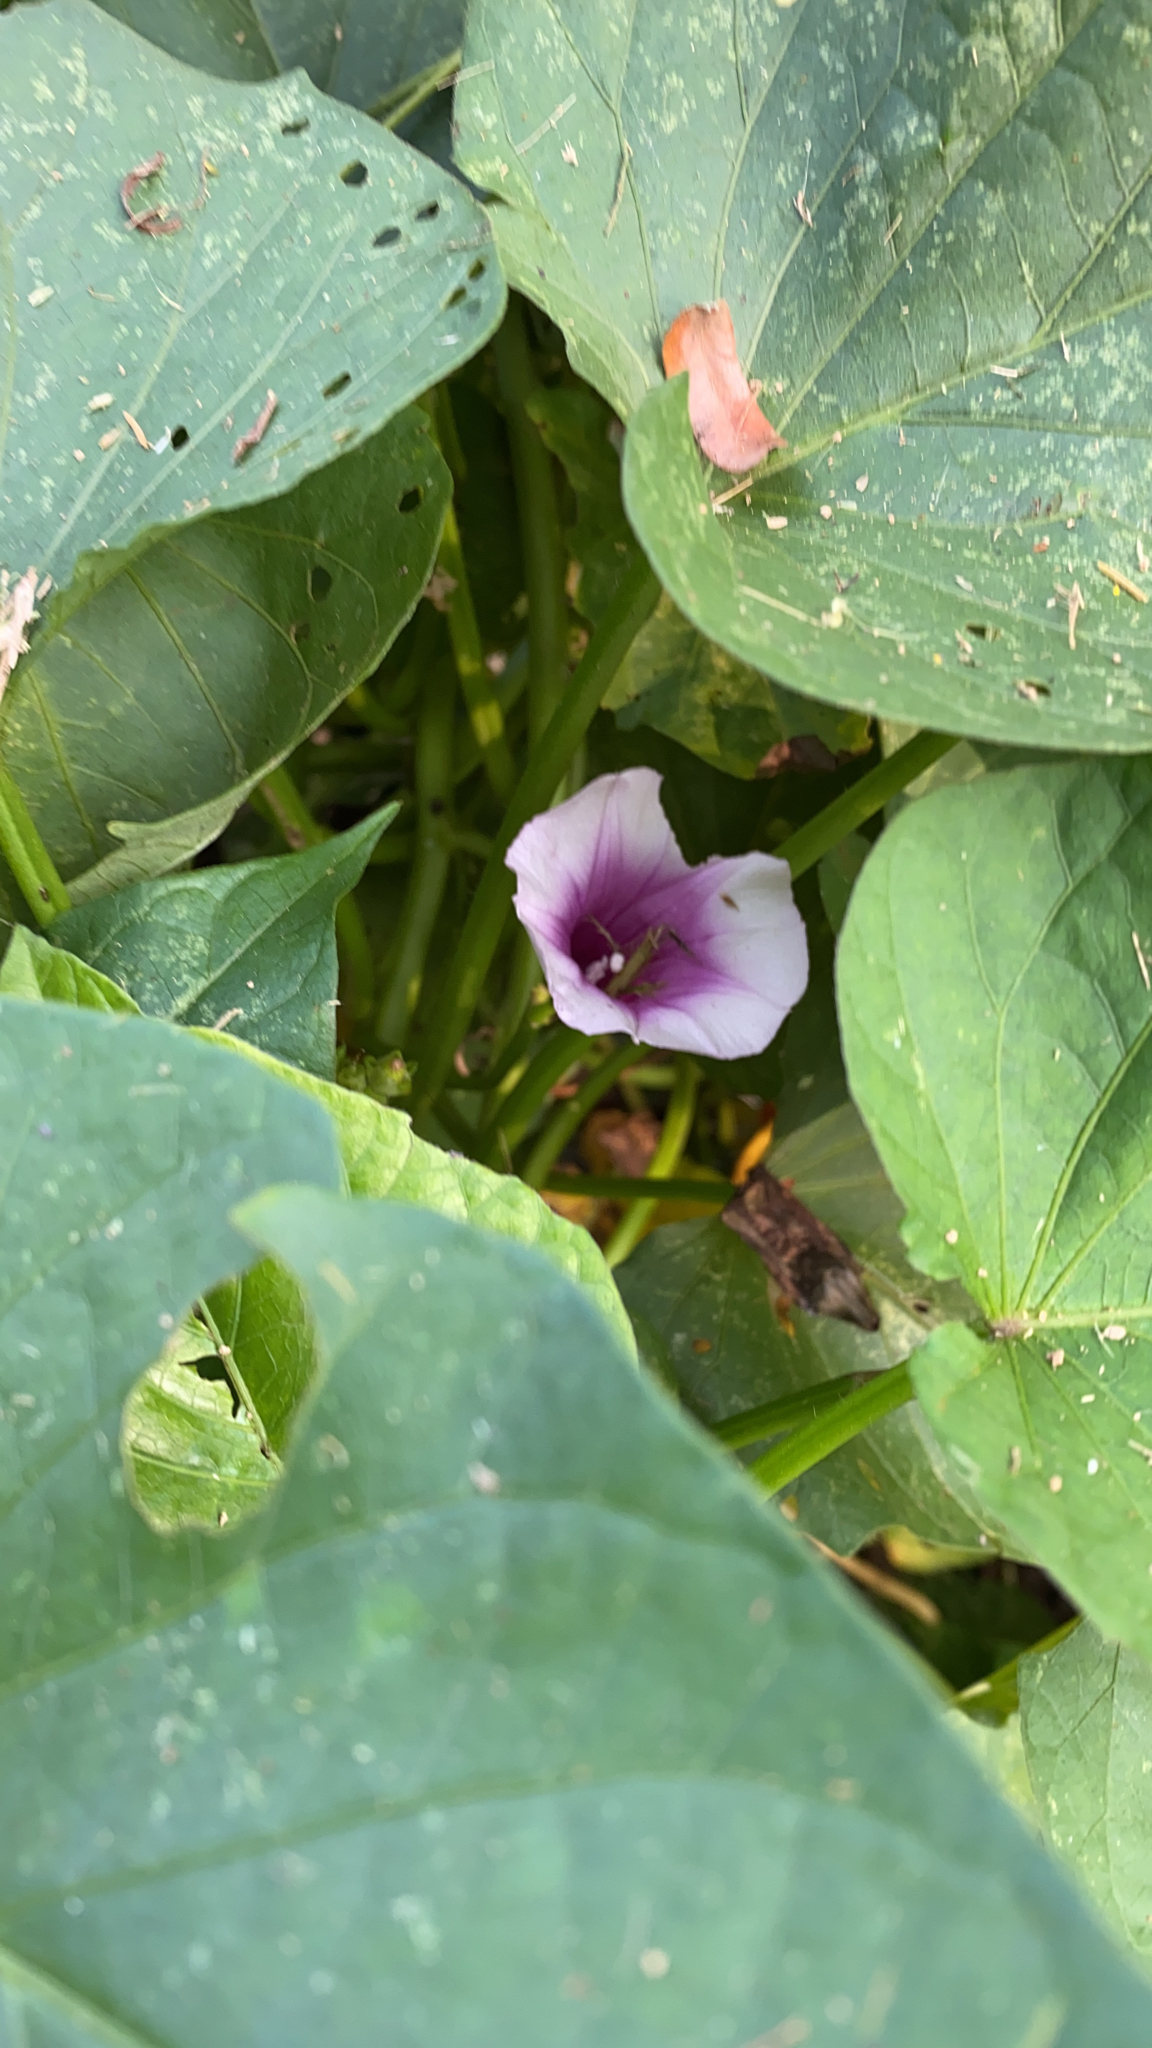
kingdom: Plantae
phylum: Tracheophyta
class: Magnoliopsida
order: Solanales
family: Convolvulaceae
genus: Ipomoea
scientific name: Ipomoea batatas
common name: Sweet-potato
